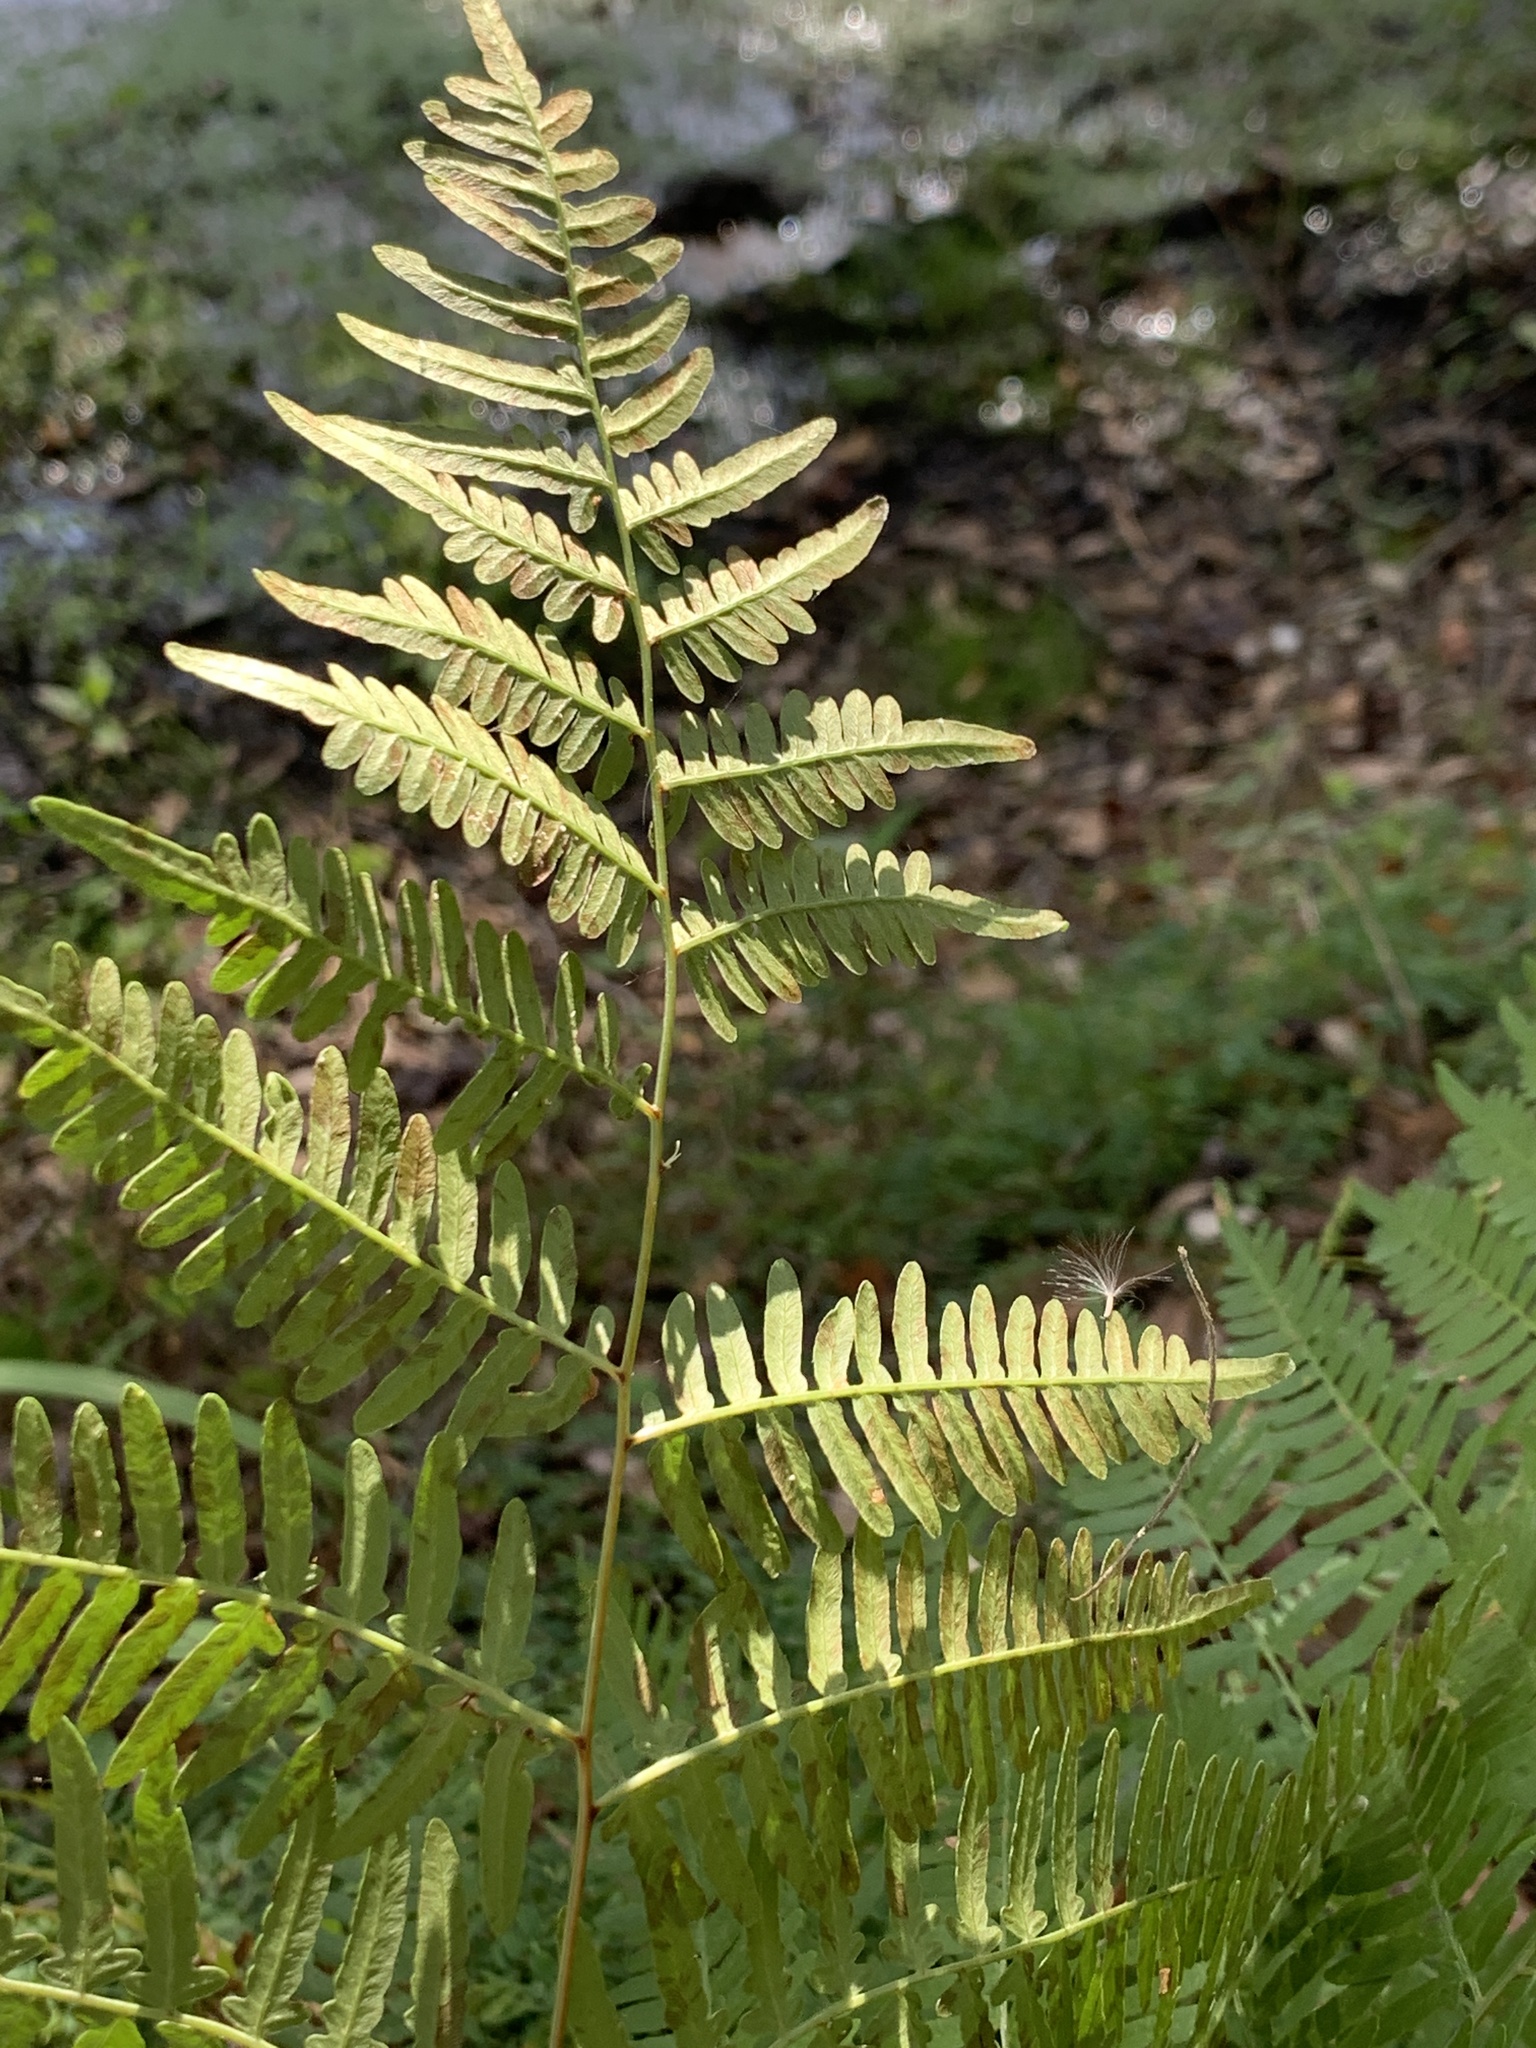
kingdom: Plantae
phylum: Tracheophyta
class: Polypodiopsida
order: Polypodiales
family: Dennstaedtiaceae
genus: Pteridium
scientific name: Pteridium
